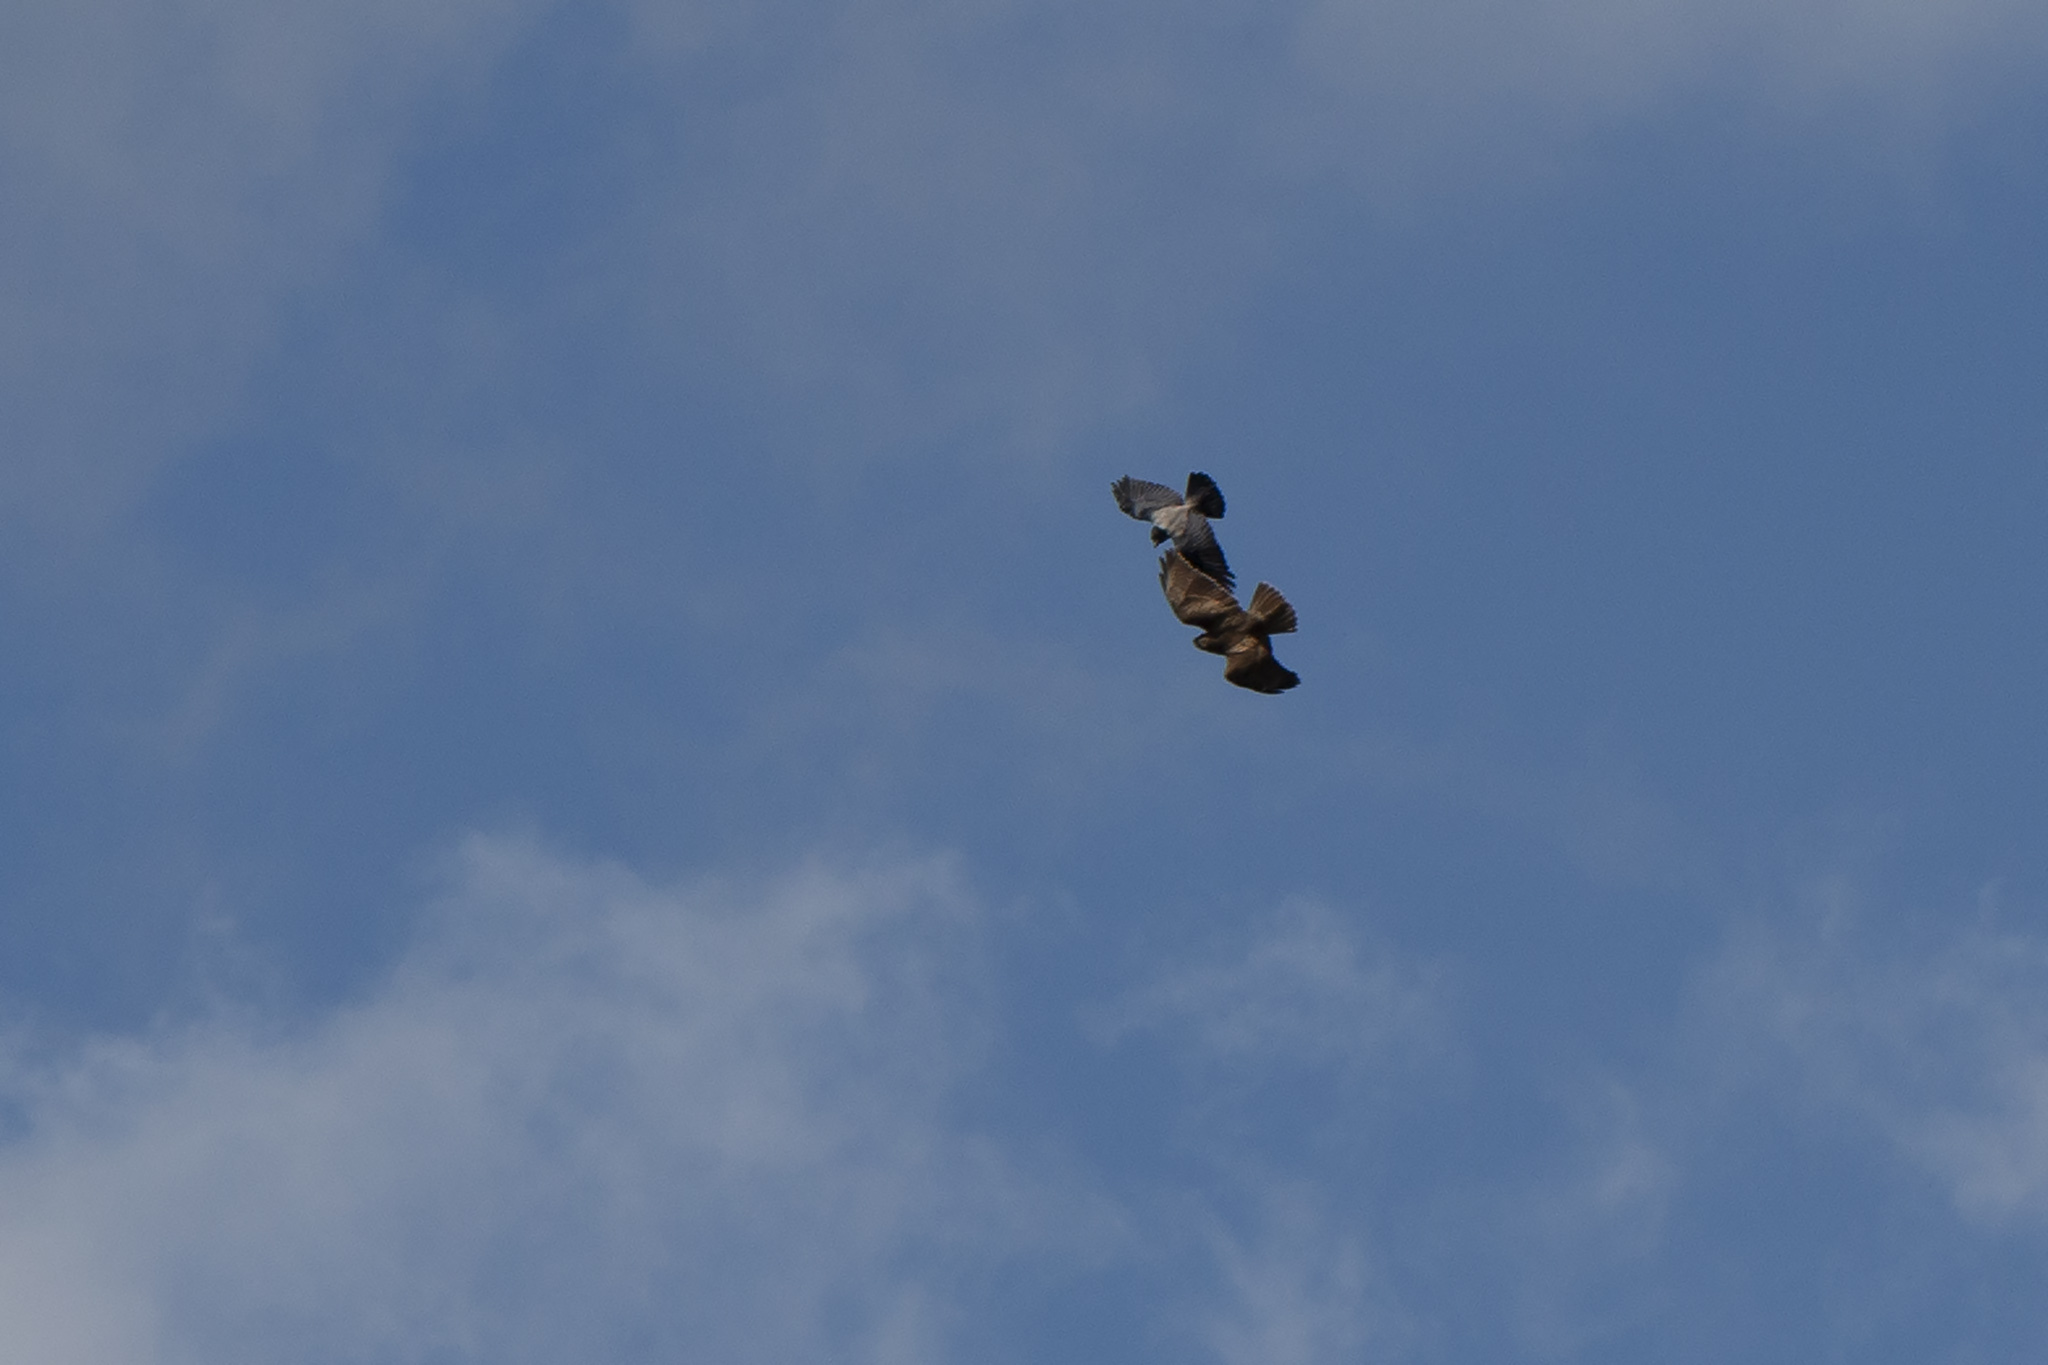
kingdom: Animalia
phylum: Chordata
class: Aves
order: Accipitriformes
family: Accipitridae
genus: Buteo
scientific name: Buteo buteo
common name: Common buzzard
